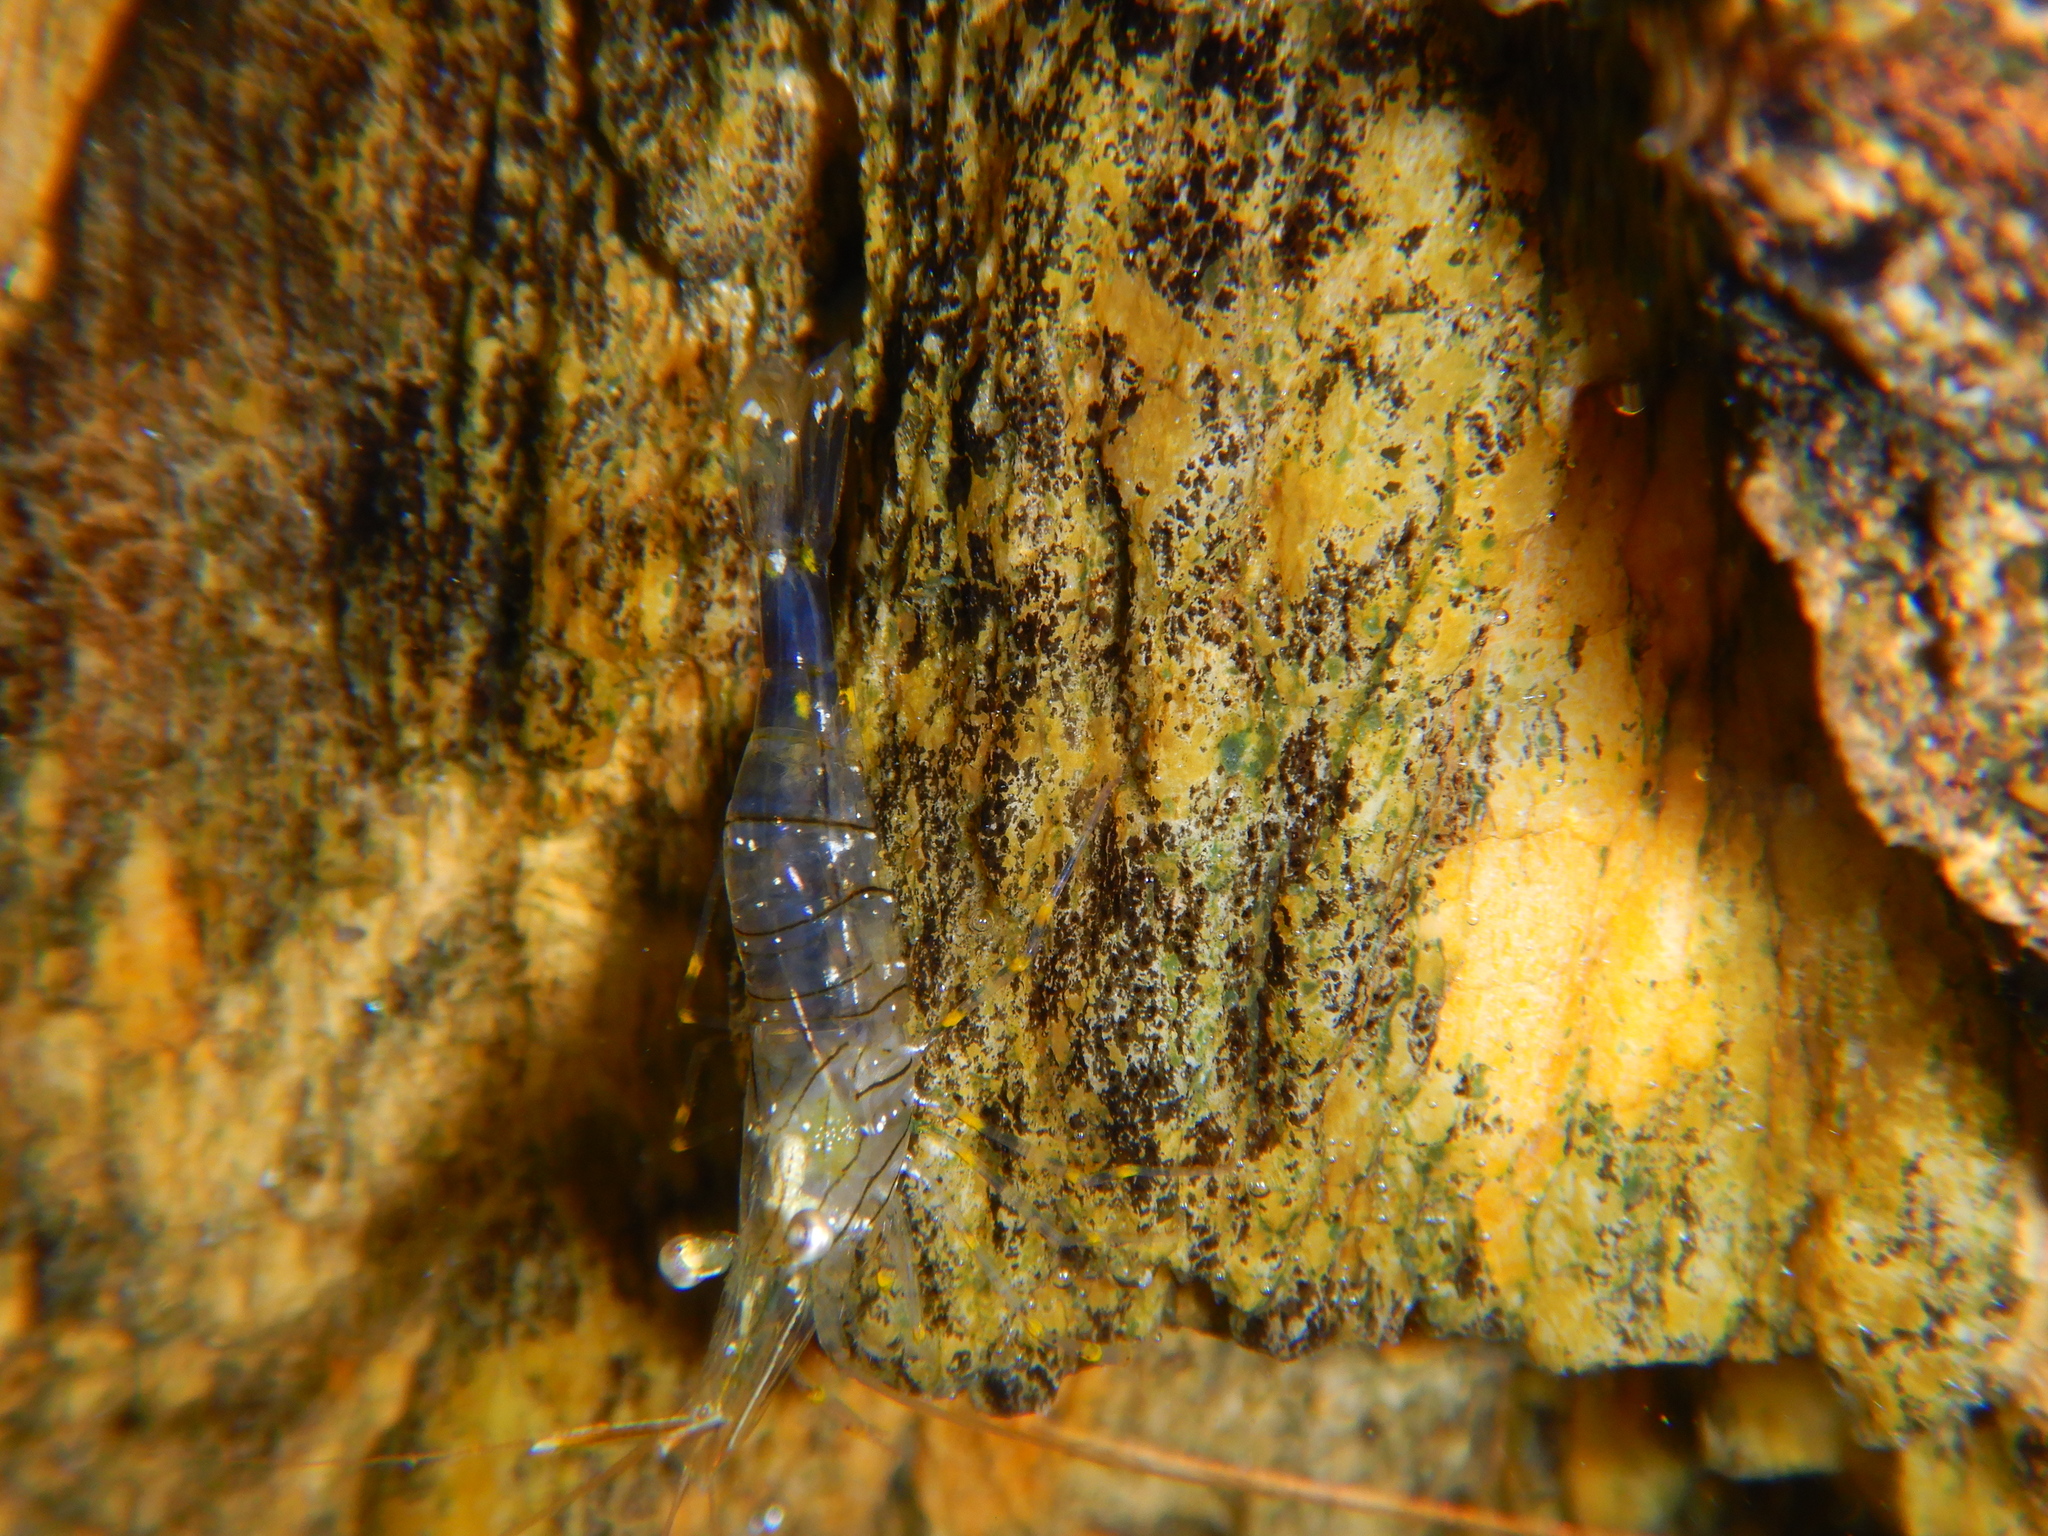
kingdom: Animalia
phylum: Arthropoda
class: Malacostraca
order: Decapoda
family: Palaemonidae
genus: Palaemon
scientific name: Palaemon elegans
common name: Grass prawm
